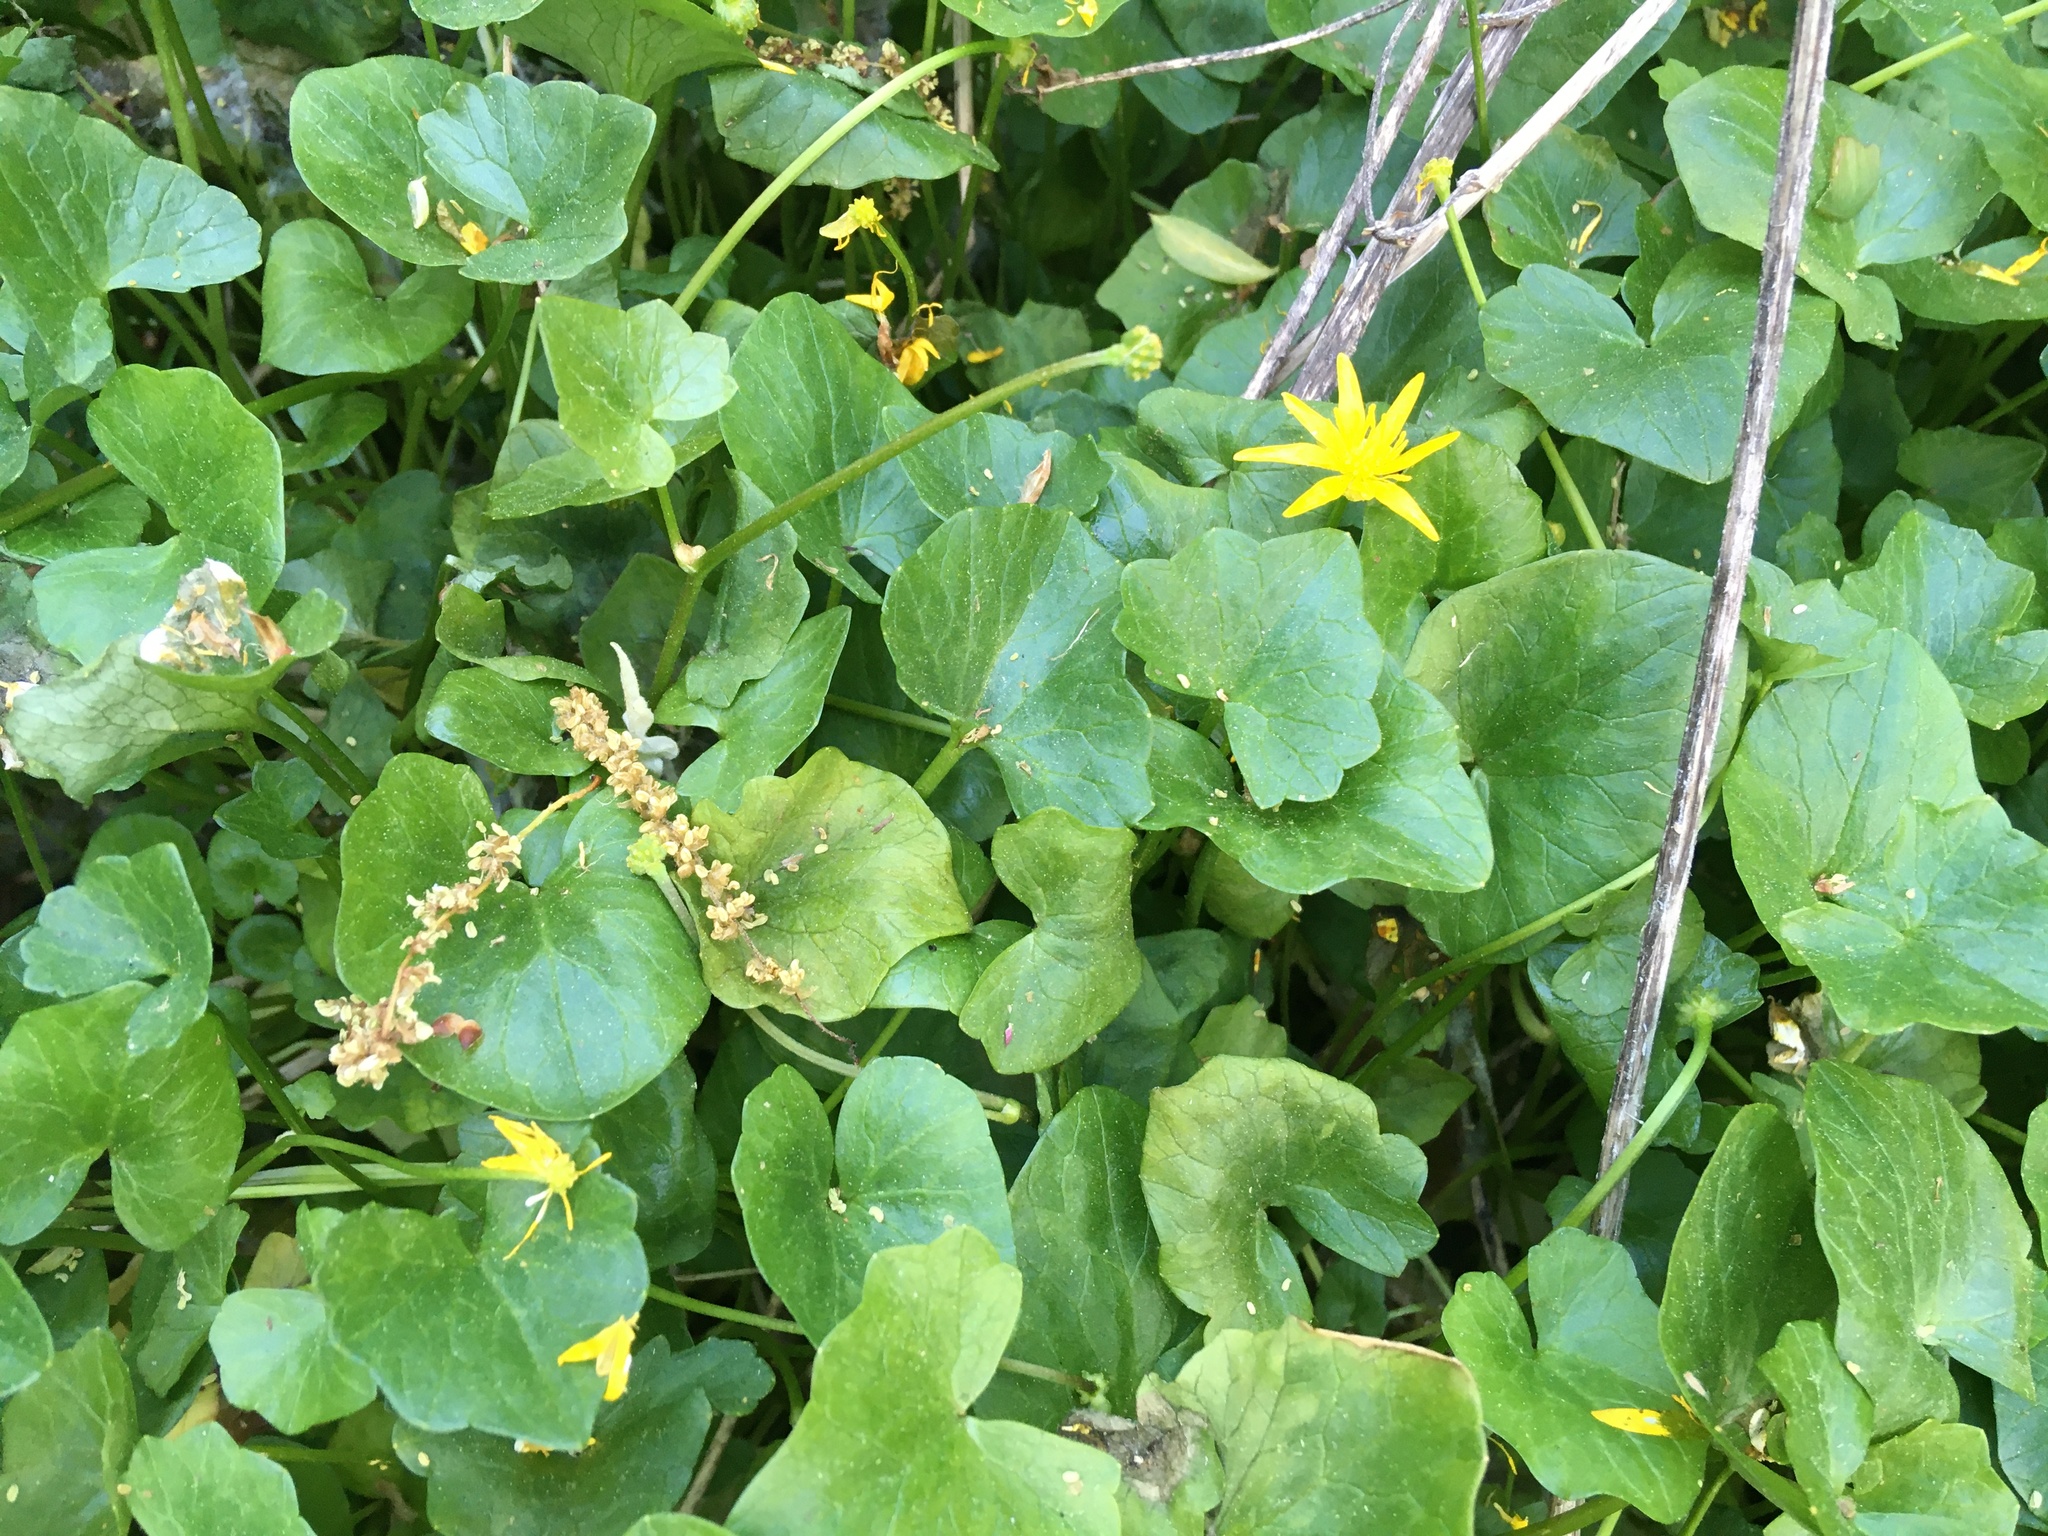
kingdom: Plantae
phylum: Tracheophyta
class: Magnoliopsida
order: Ranunculales
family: Ranunculaceae
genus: Ficaria
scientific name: Ficaria verna
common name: Lesser celandine
